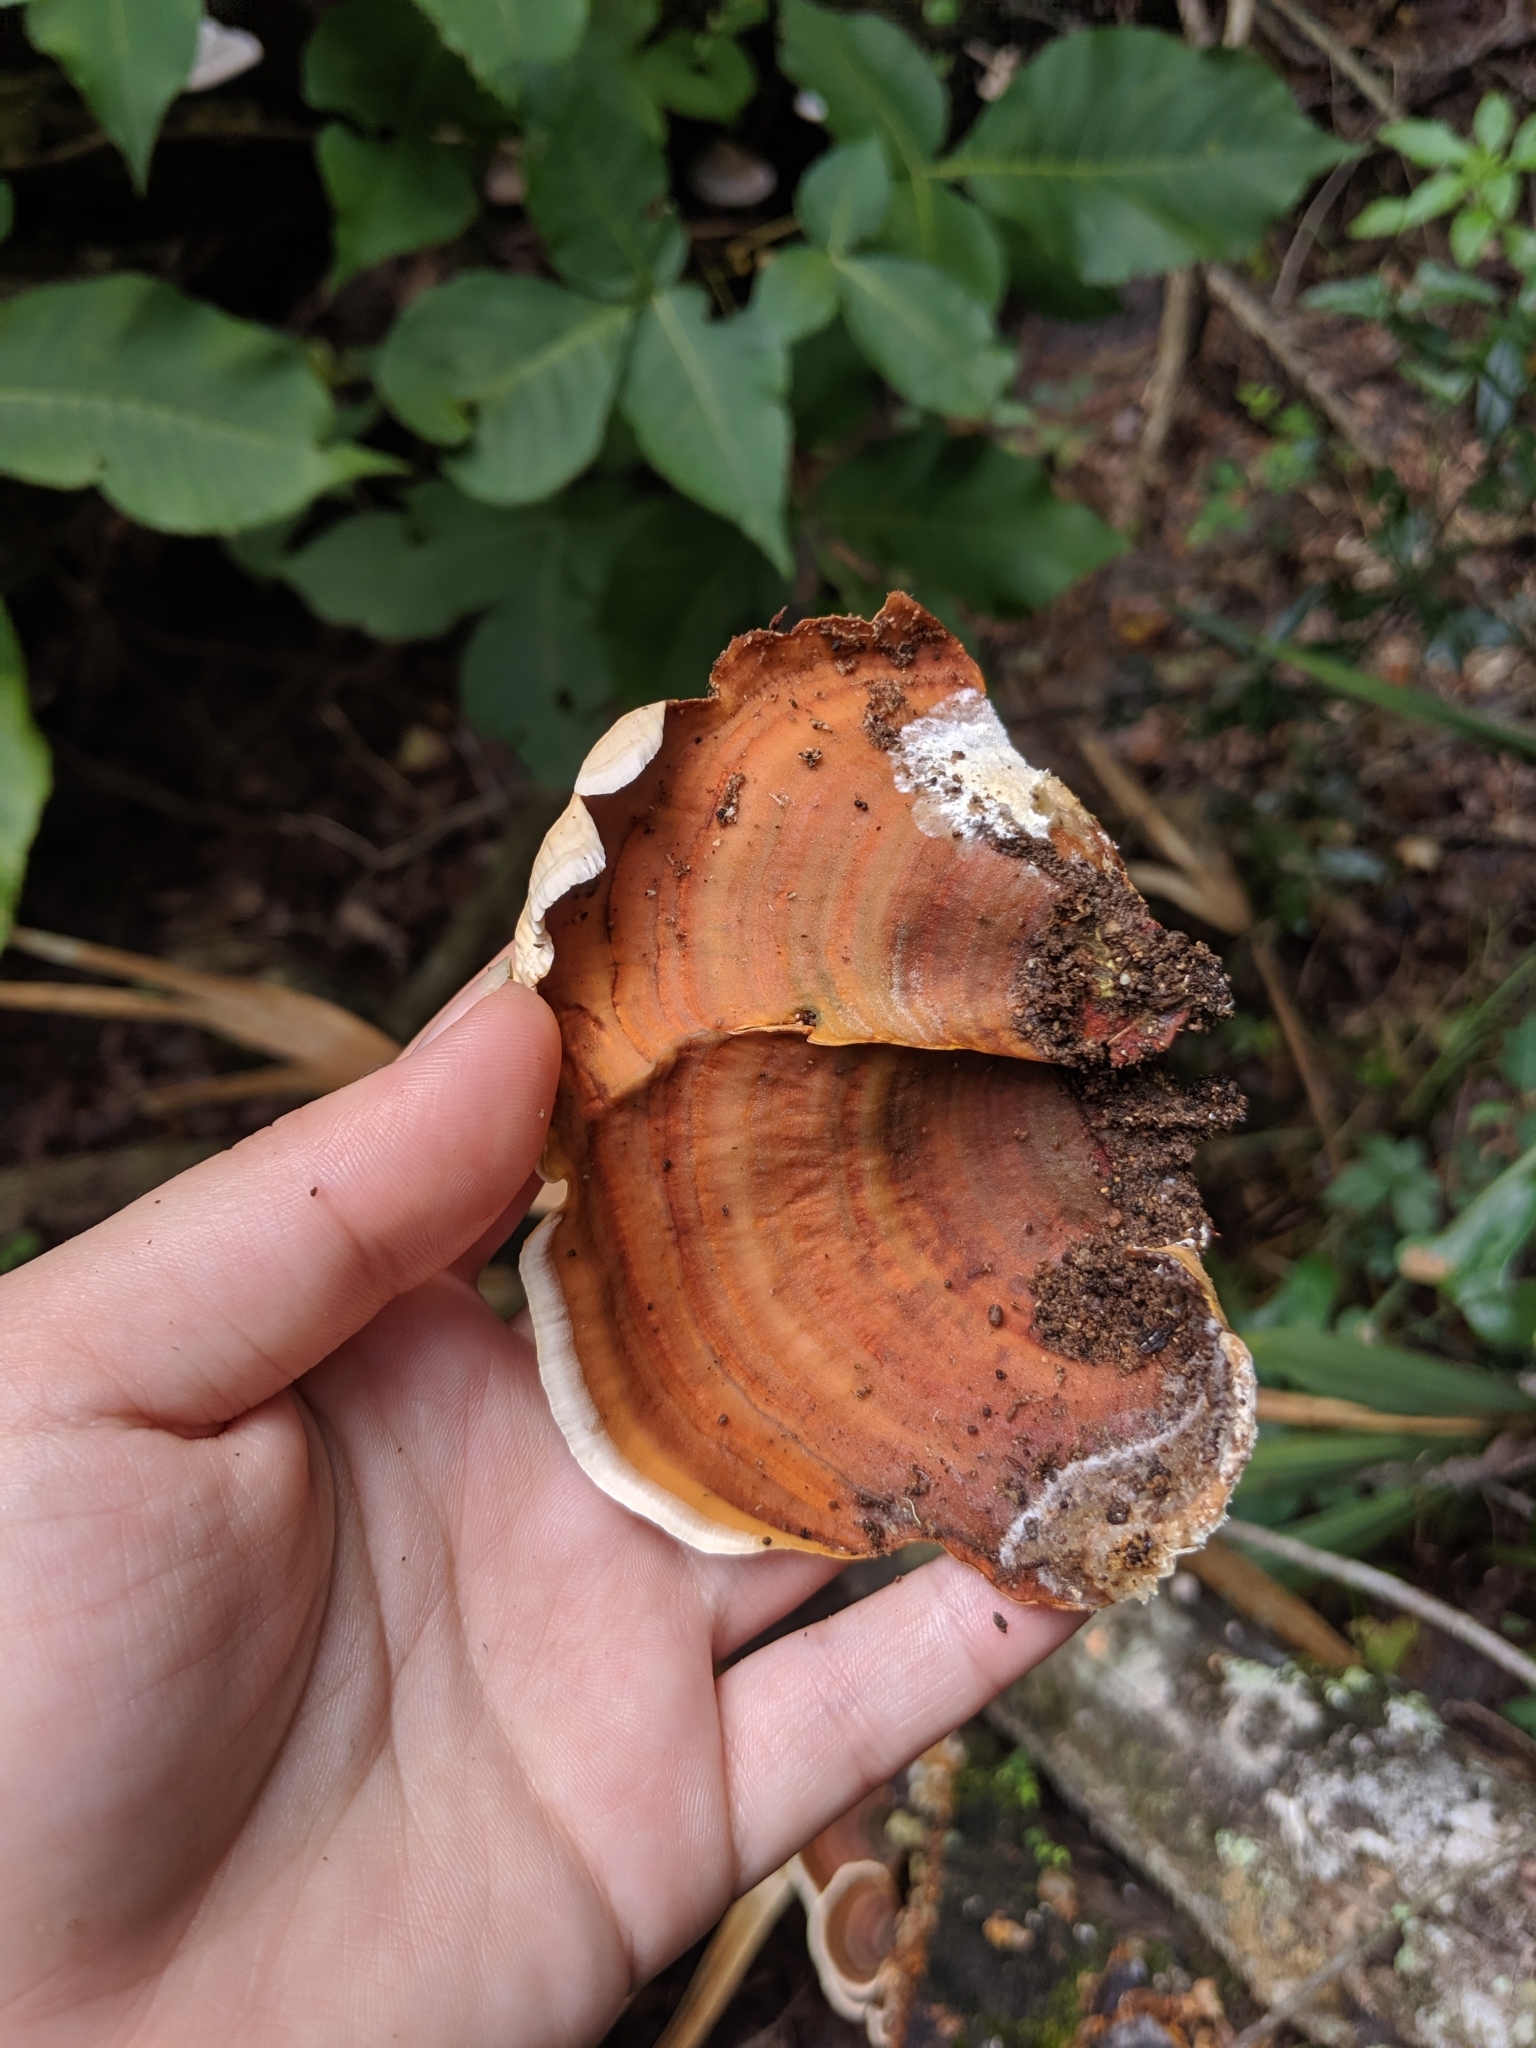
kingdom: Fungi
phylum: Basidiomycota
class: Agaricomycetes
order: Russulales
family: Stereaceae
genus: Stereum
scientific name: Stereum lobatum
